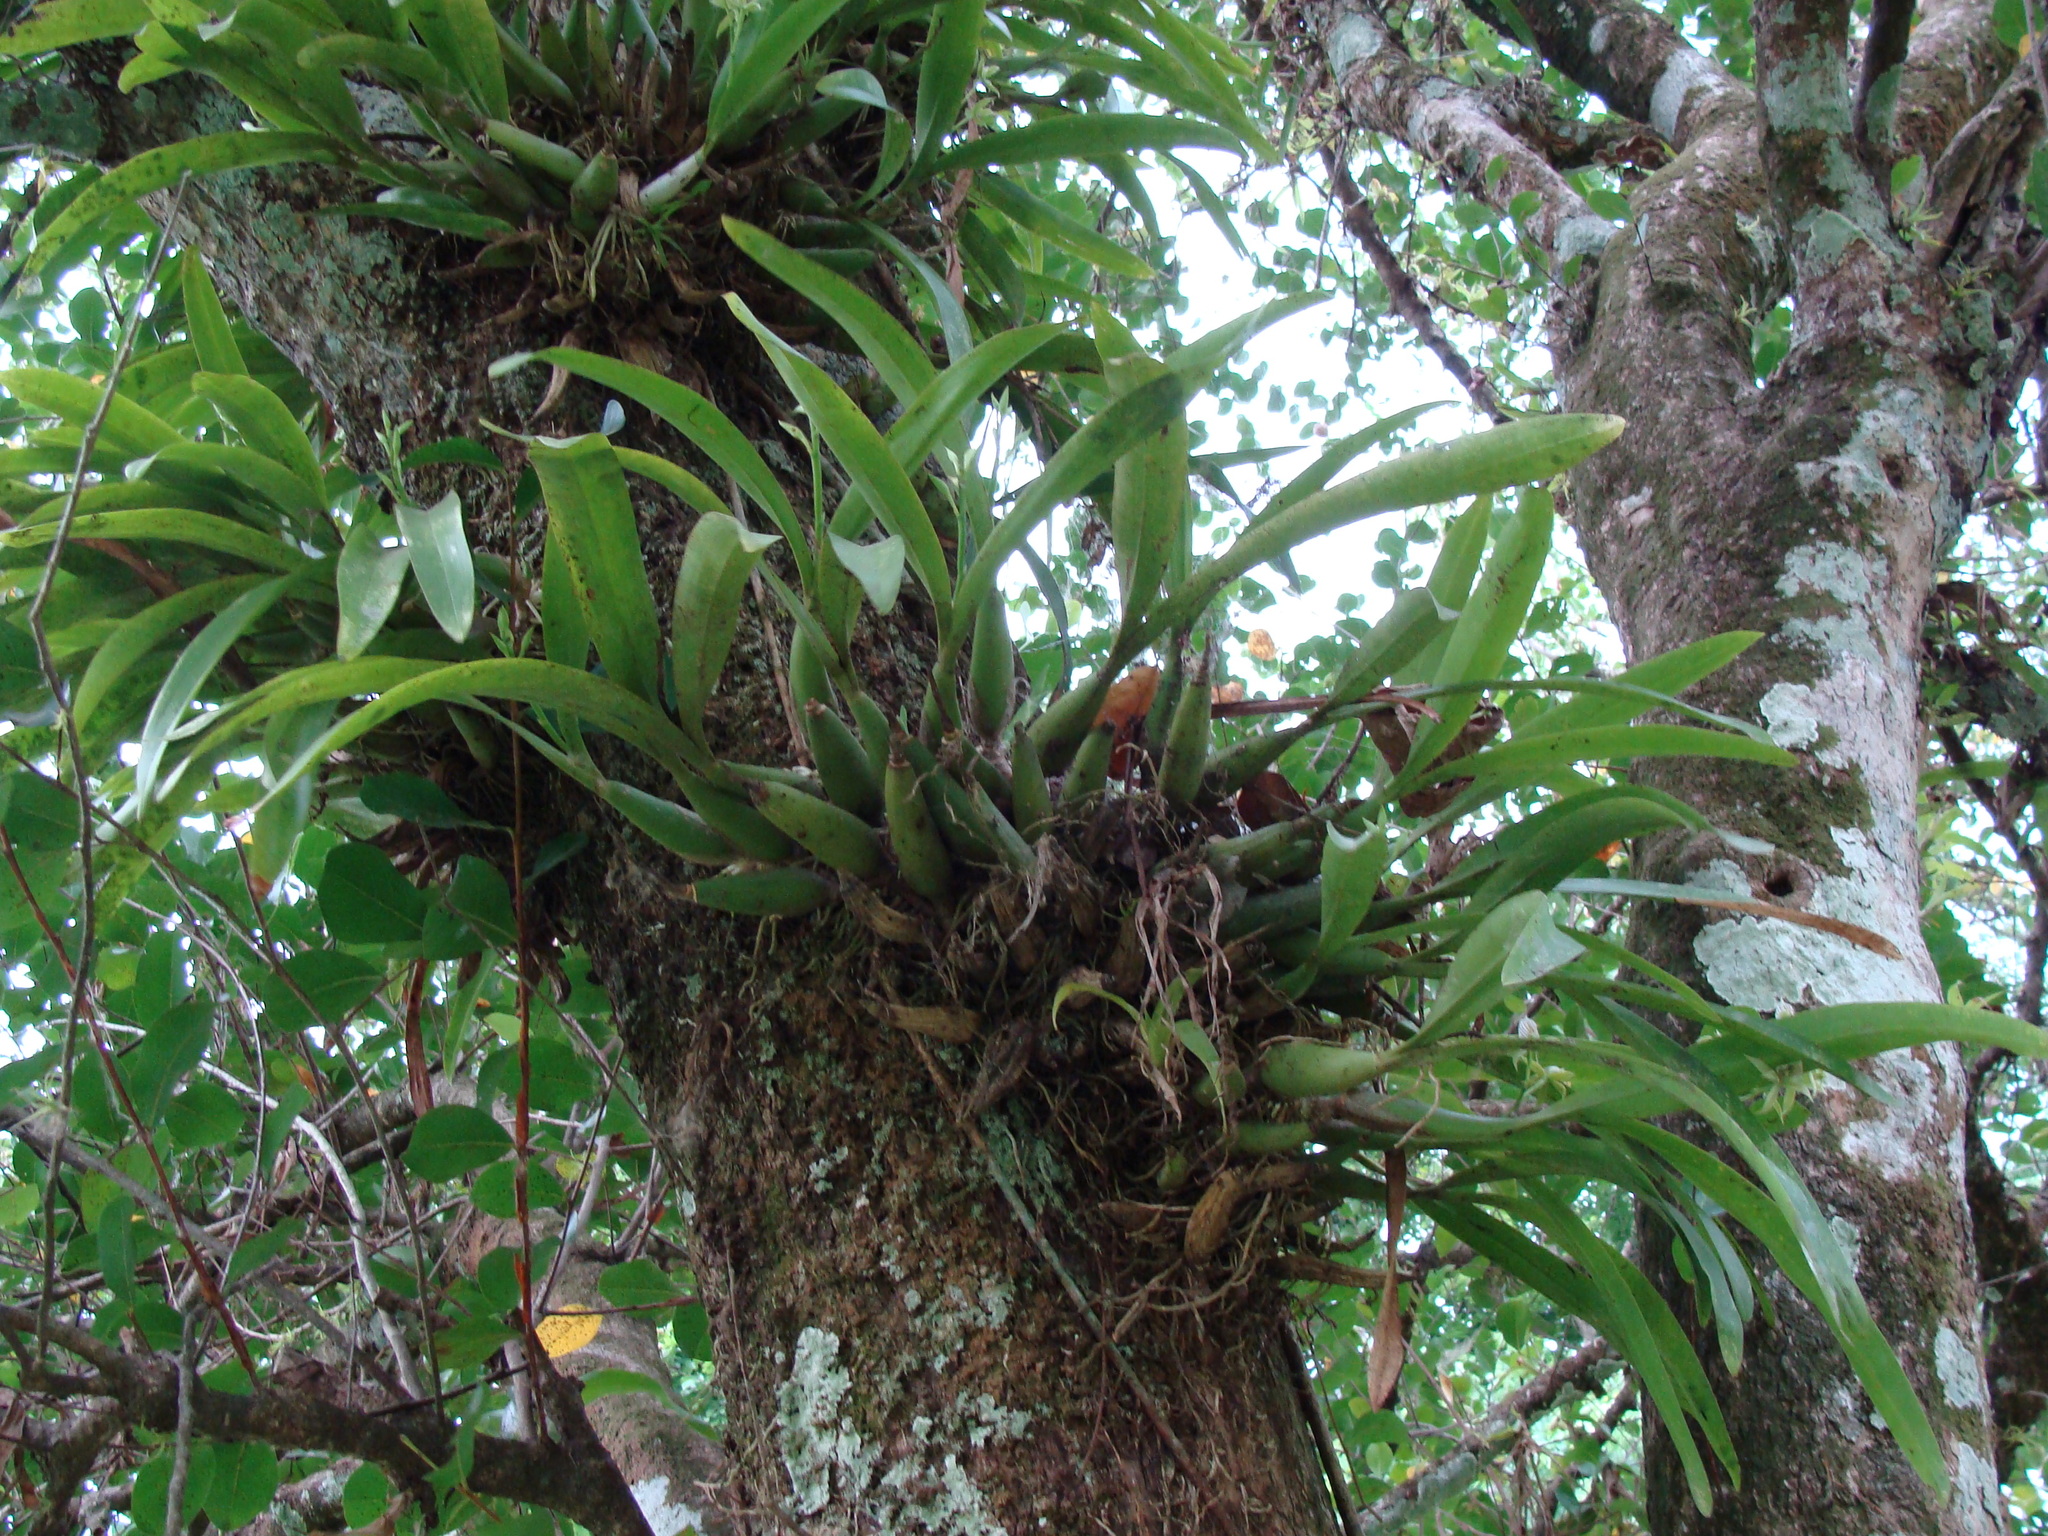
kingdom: Plantae
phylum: Tracheophyta
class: Liliopsida
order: Asparagales
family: Orchidaceae
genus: Prosthechea
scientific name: Prosthechea chacaoensis
